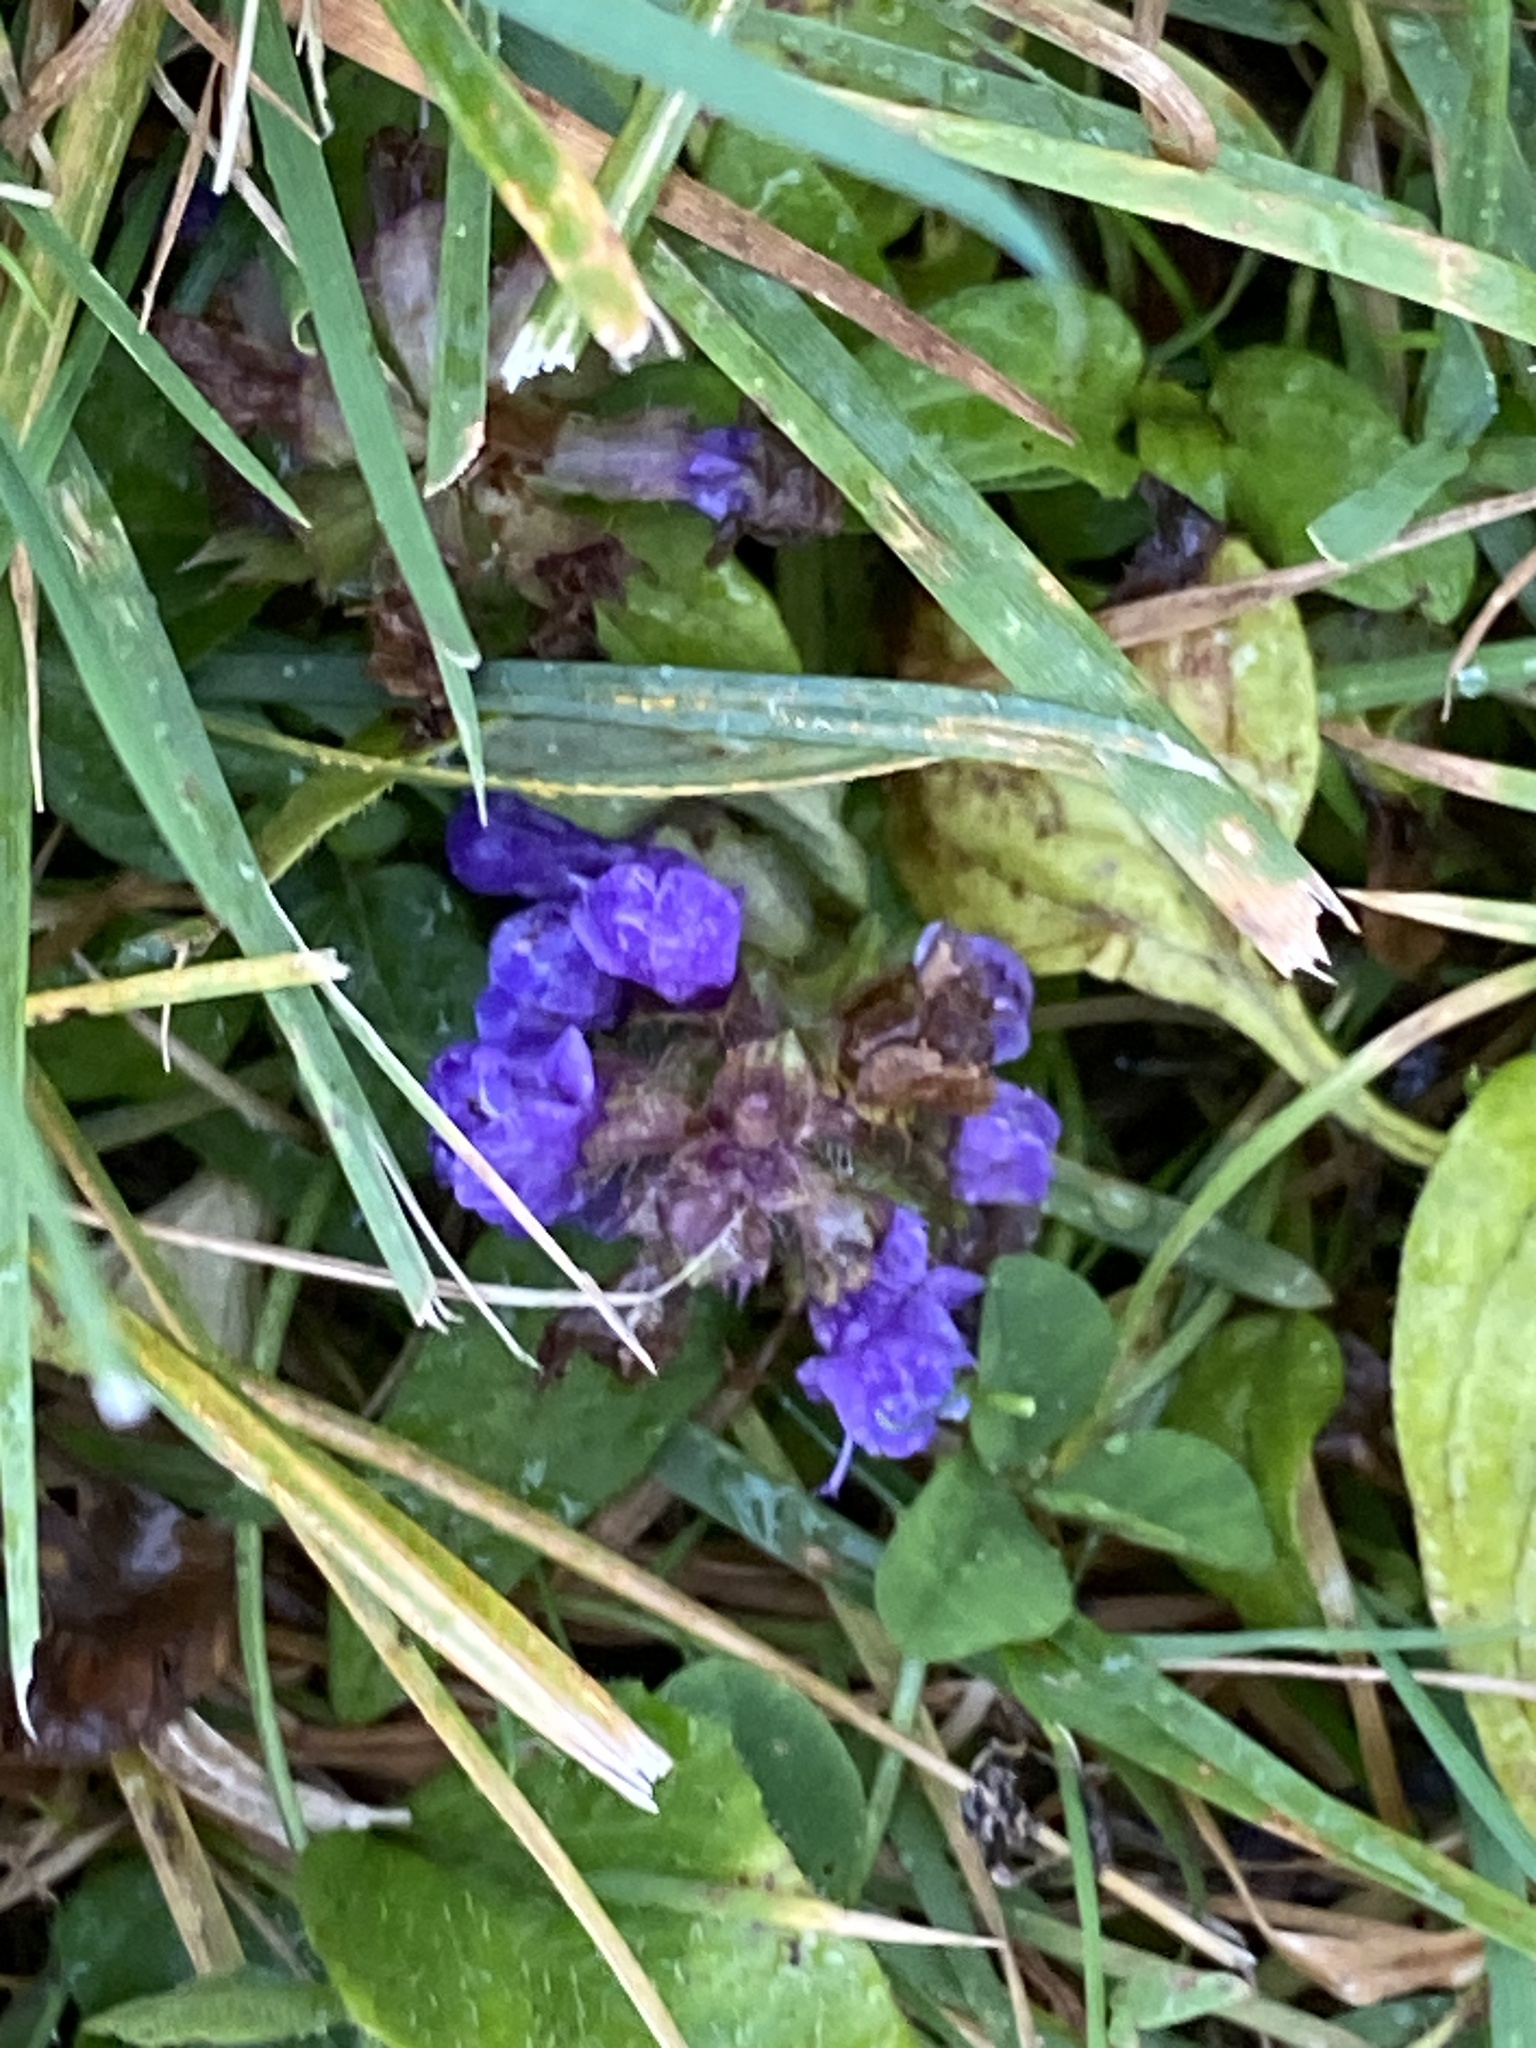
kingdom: Plantae
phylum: Tracheophyta
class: Magnoliopsida
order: Lamiales
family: Lamiaceae
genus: Prunella
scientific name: Prunella vulgaris
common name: Heal-all
